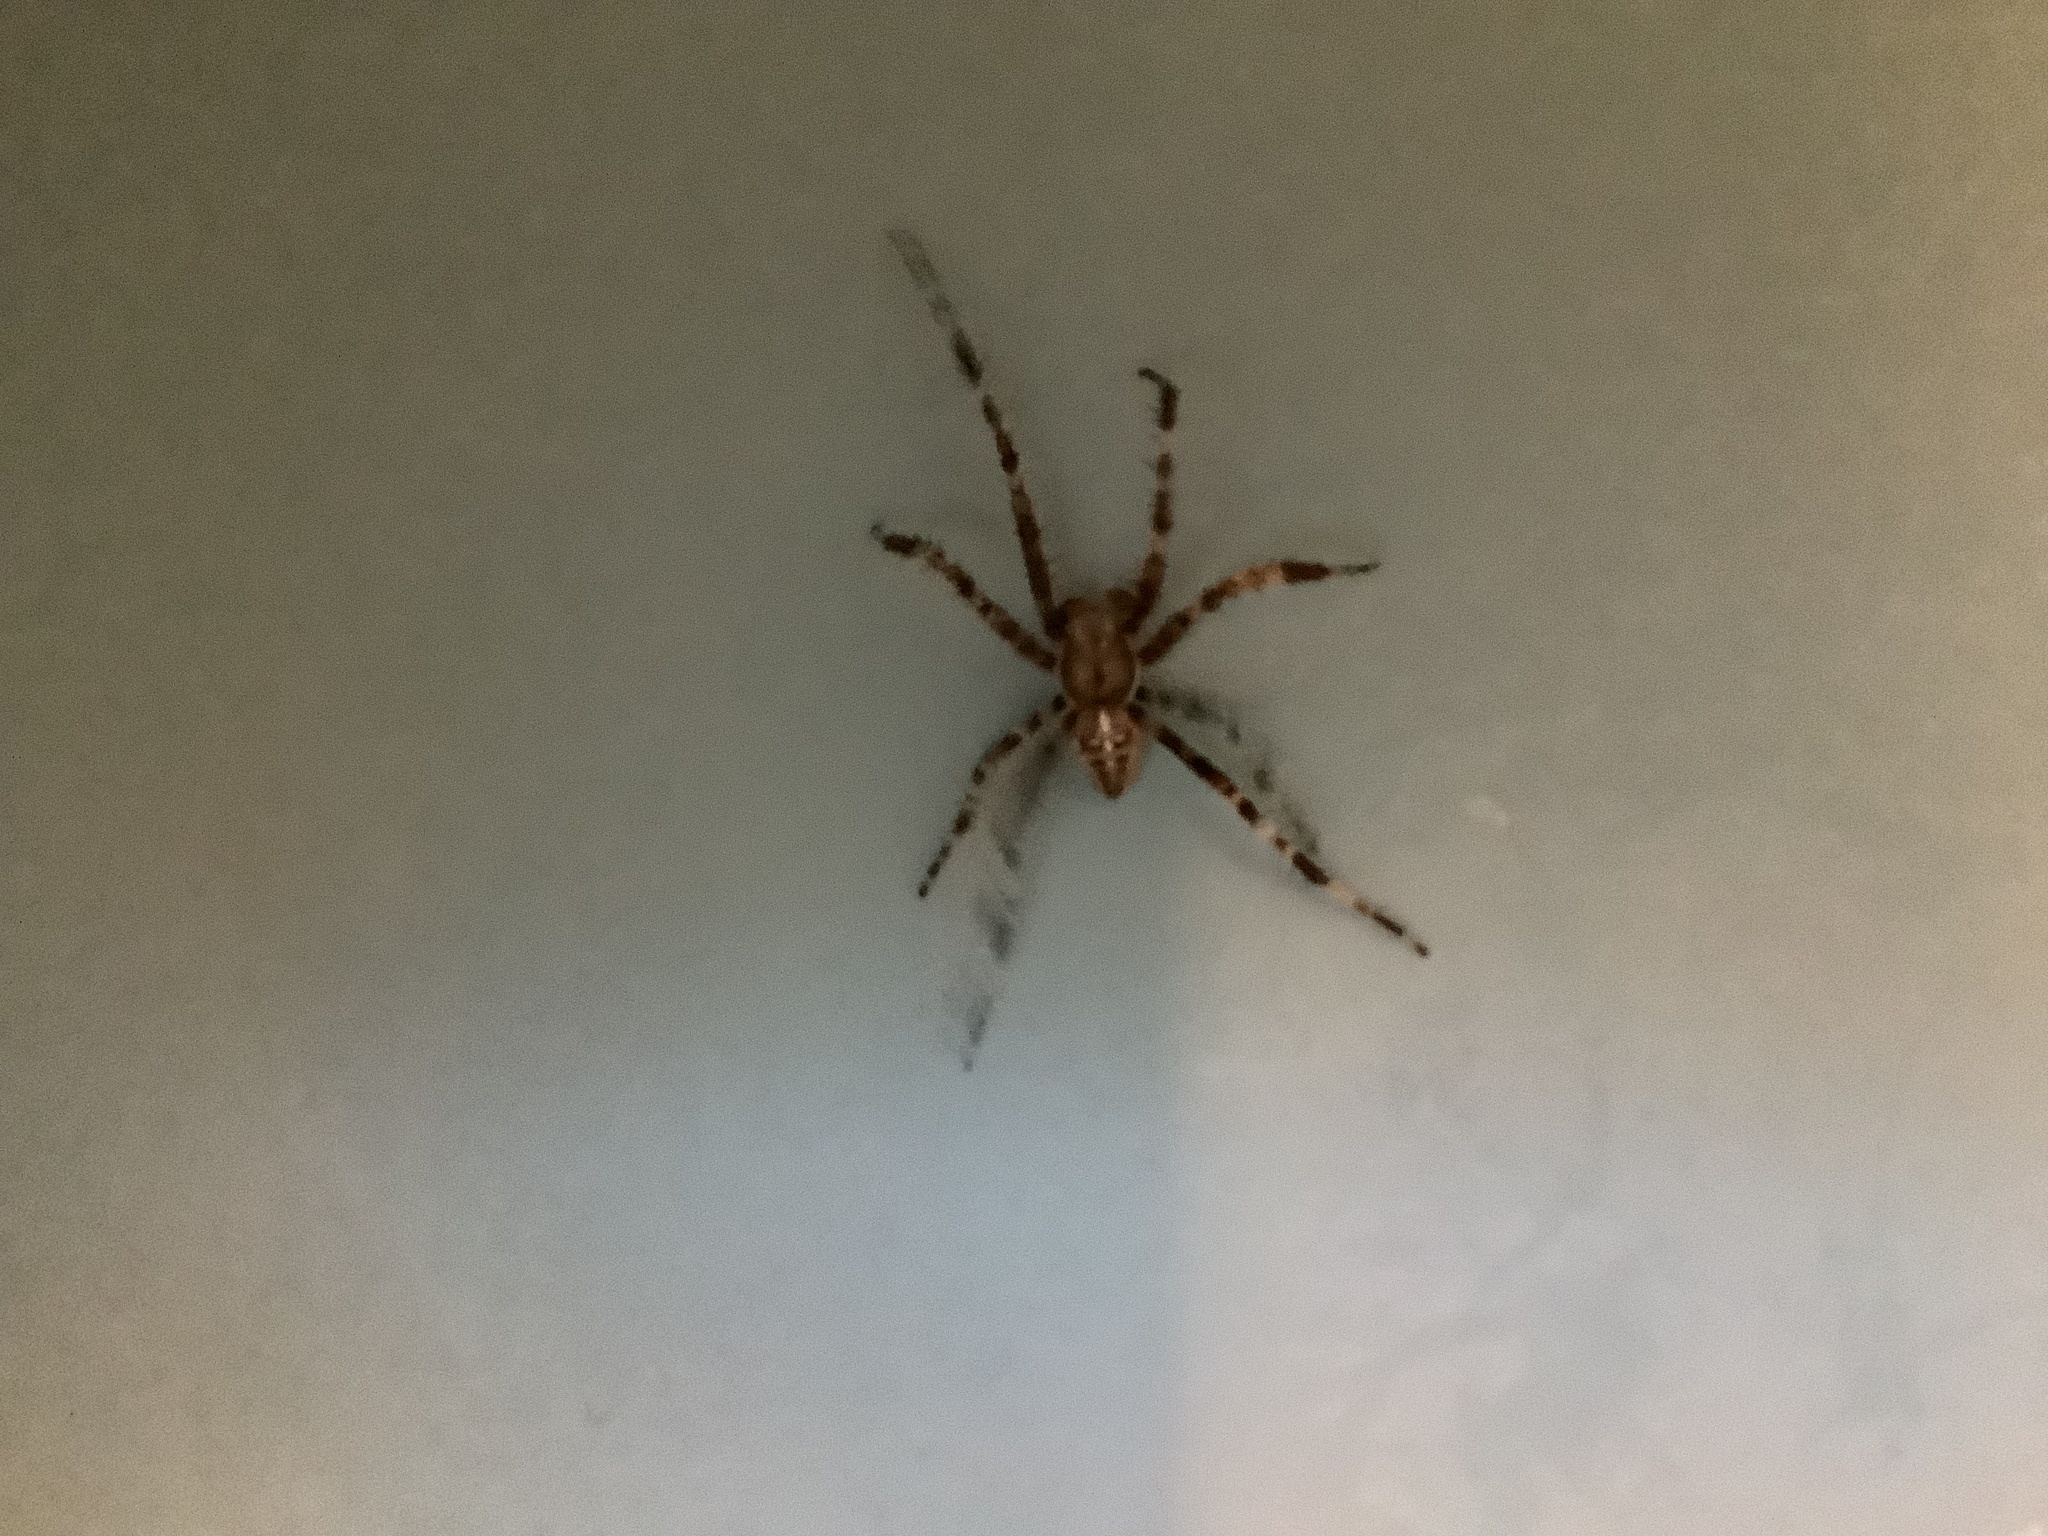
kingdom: Animalia
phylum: Arthropoda
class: Arachnida
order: Araneae
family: Araneidae
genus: Araneus
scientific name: Araneus diadematus
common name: Cross orbweaver
